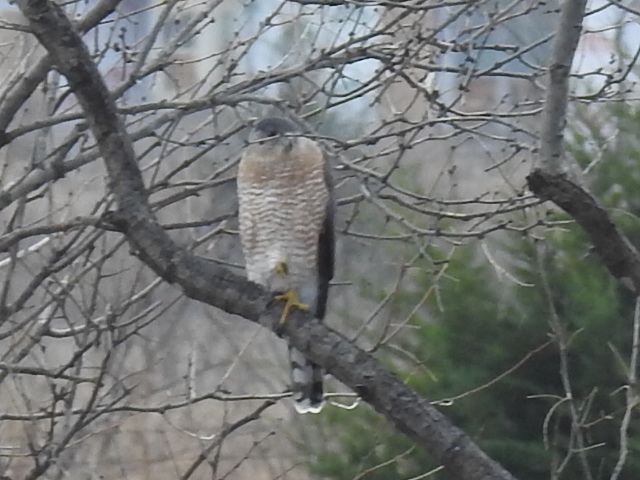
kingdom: Animalia
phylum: Chordata
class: Aves
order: Accipitriformes
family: Accipitridae
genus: Accipiter
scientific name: Accipiter cooperii
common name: Cooper's hawk
